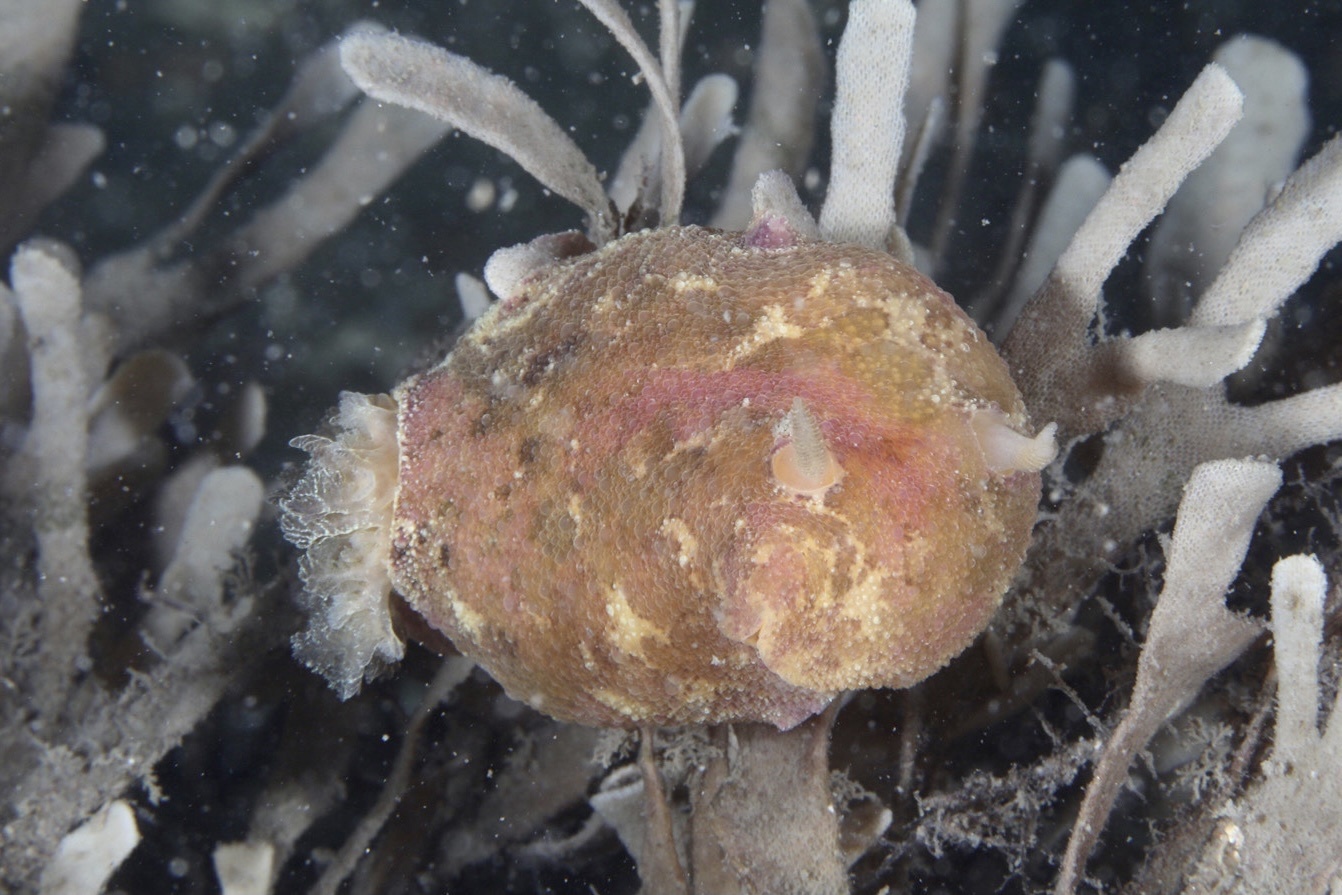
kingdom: Animalia
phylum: Mollusca
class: Gastropoda
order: Nudibranchia
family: Dorididae
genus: Doris
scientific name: Doris pseudoargus
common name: Sea lemon
